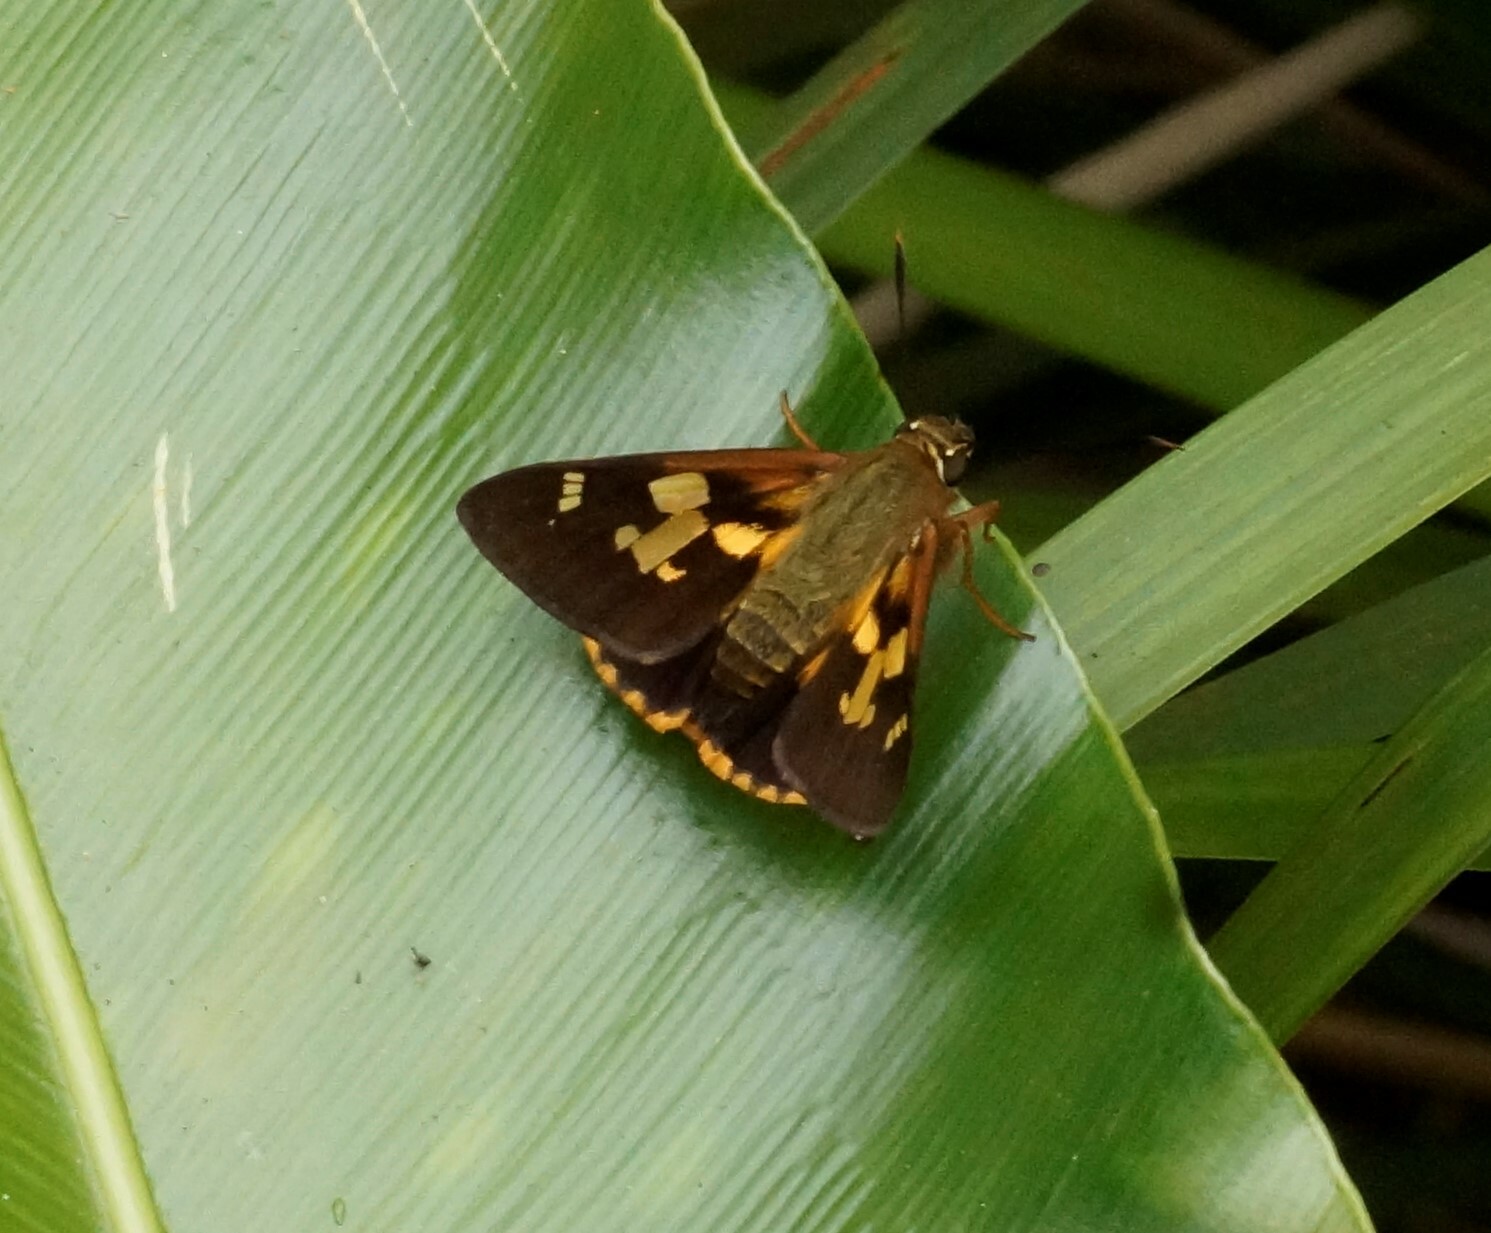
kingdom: Animalia
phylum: Arthropoda
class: Insecta
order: Lepidoptera
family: Hesperiidae
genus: Trapezites
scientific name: Trapezites symmomus
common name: Splendid ochre
